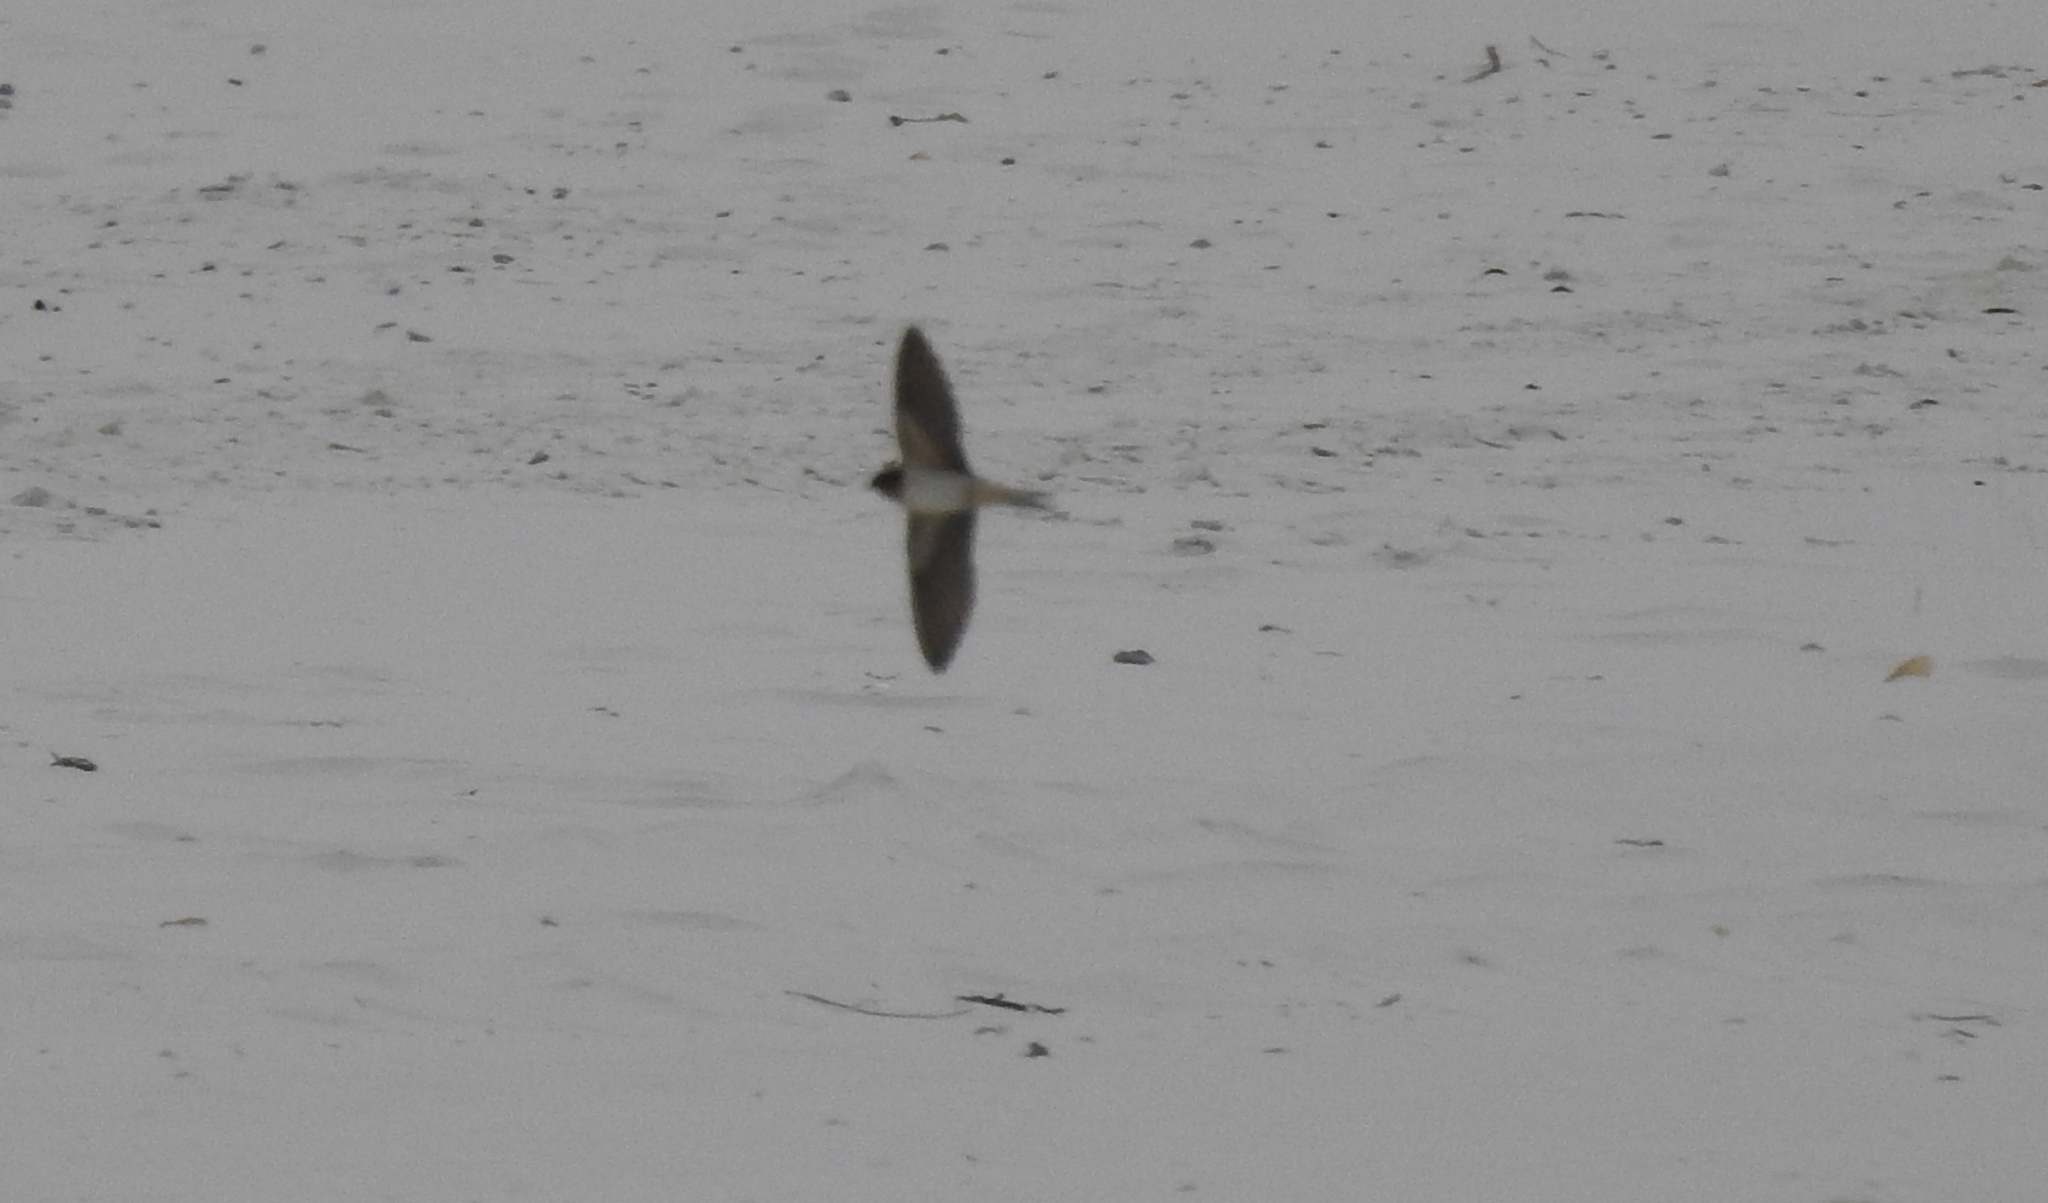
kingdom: Animalia
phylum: Chordata
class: Aves
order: Passeriformes
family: Hirundinidae
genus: Hirundo
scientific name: Hirundo rustica
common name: Barn swallow
